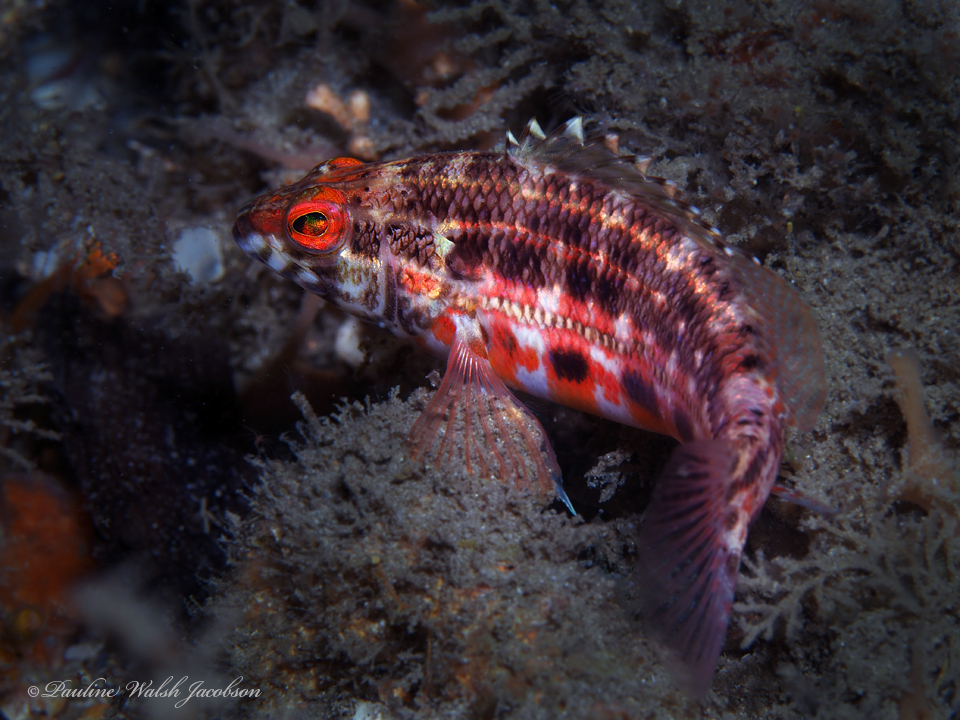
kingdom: Animalia
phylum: Chordata
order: Perciformes
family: Serranidae
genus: Serranus
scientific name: Serranus baldwini
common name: Lantern bass
